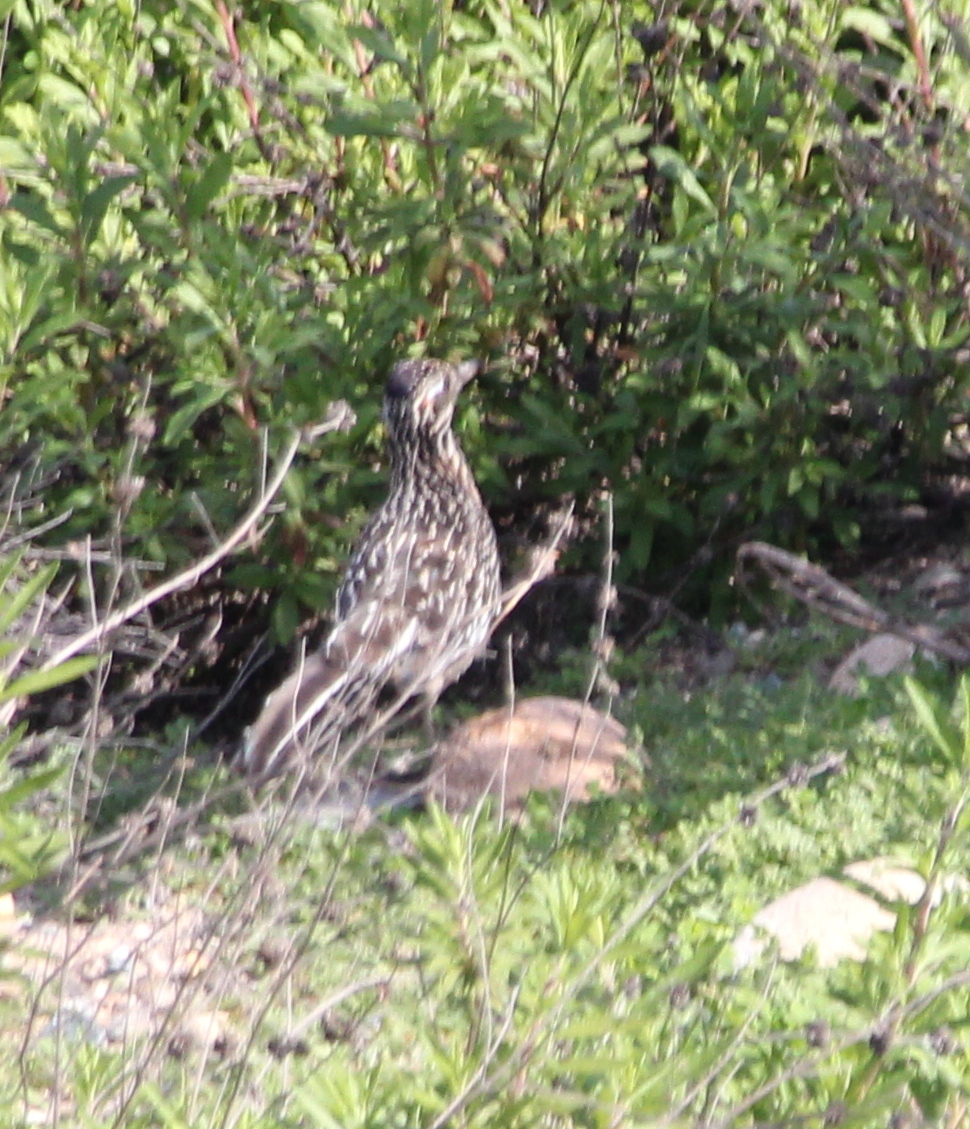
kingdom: Animalia
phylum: Chordata
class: Aves
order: Cuculiformes
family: Cuculidae
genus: Geococcyx
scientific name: Geococcyx californianus
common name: Greater roadrunner
